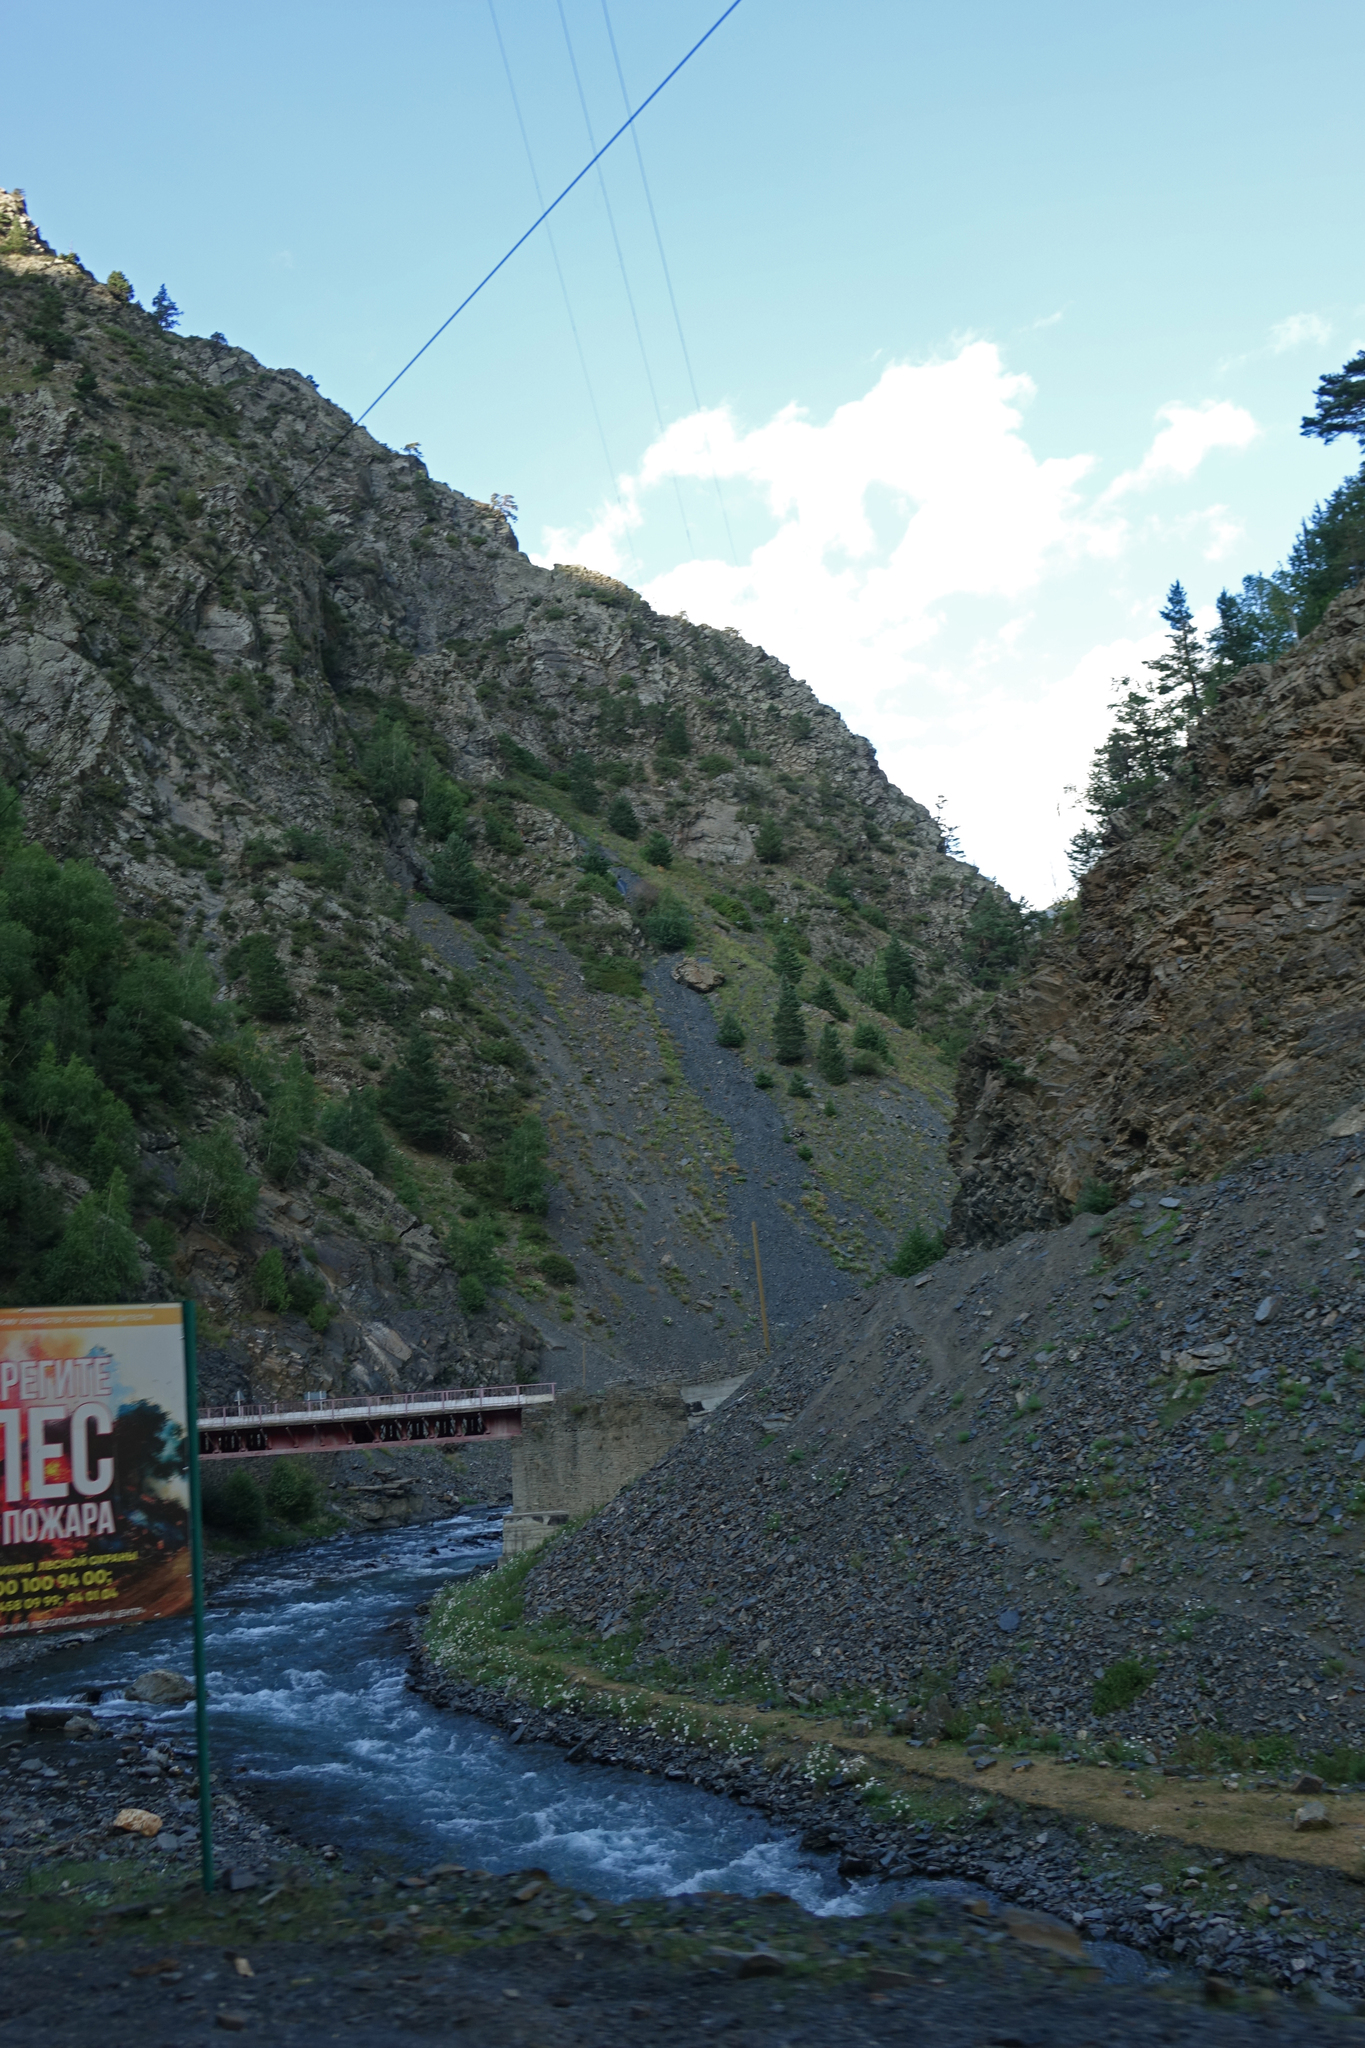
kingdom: Plantae
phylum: Tracheophyta
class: Pinopsida
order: Pinales
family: Pinaceae
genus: Pinus
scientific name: Pinus sylvestris
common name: Scots pine
